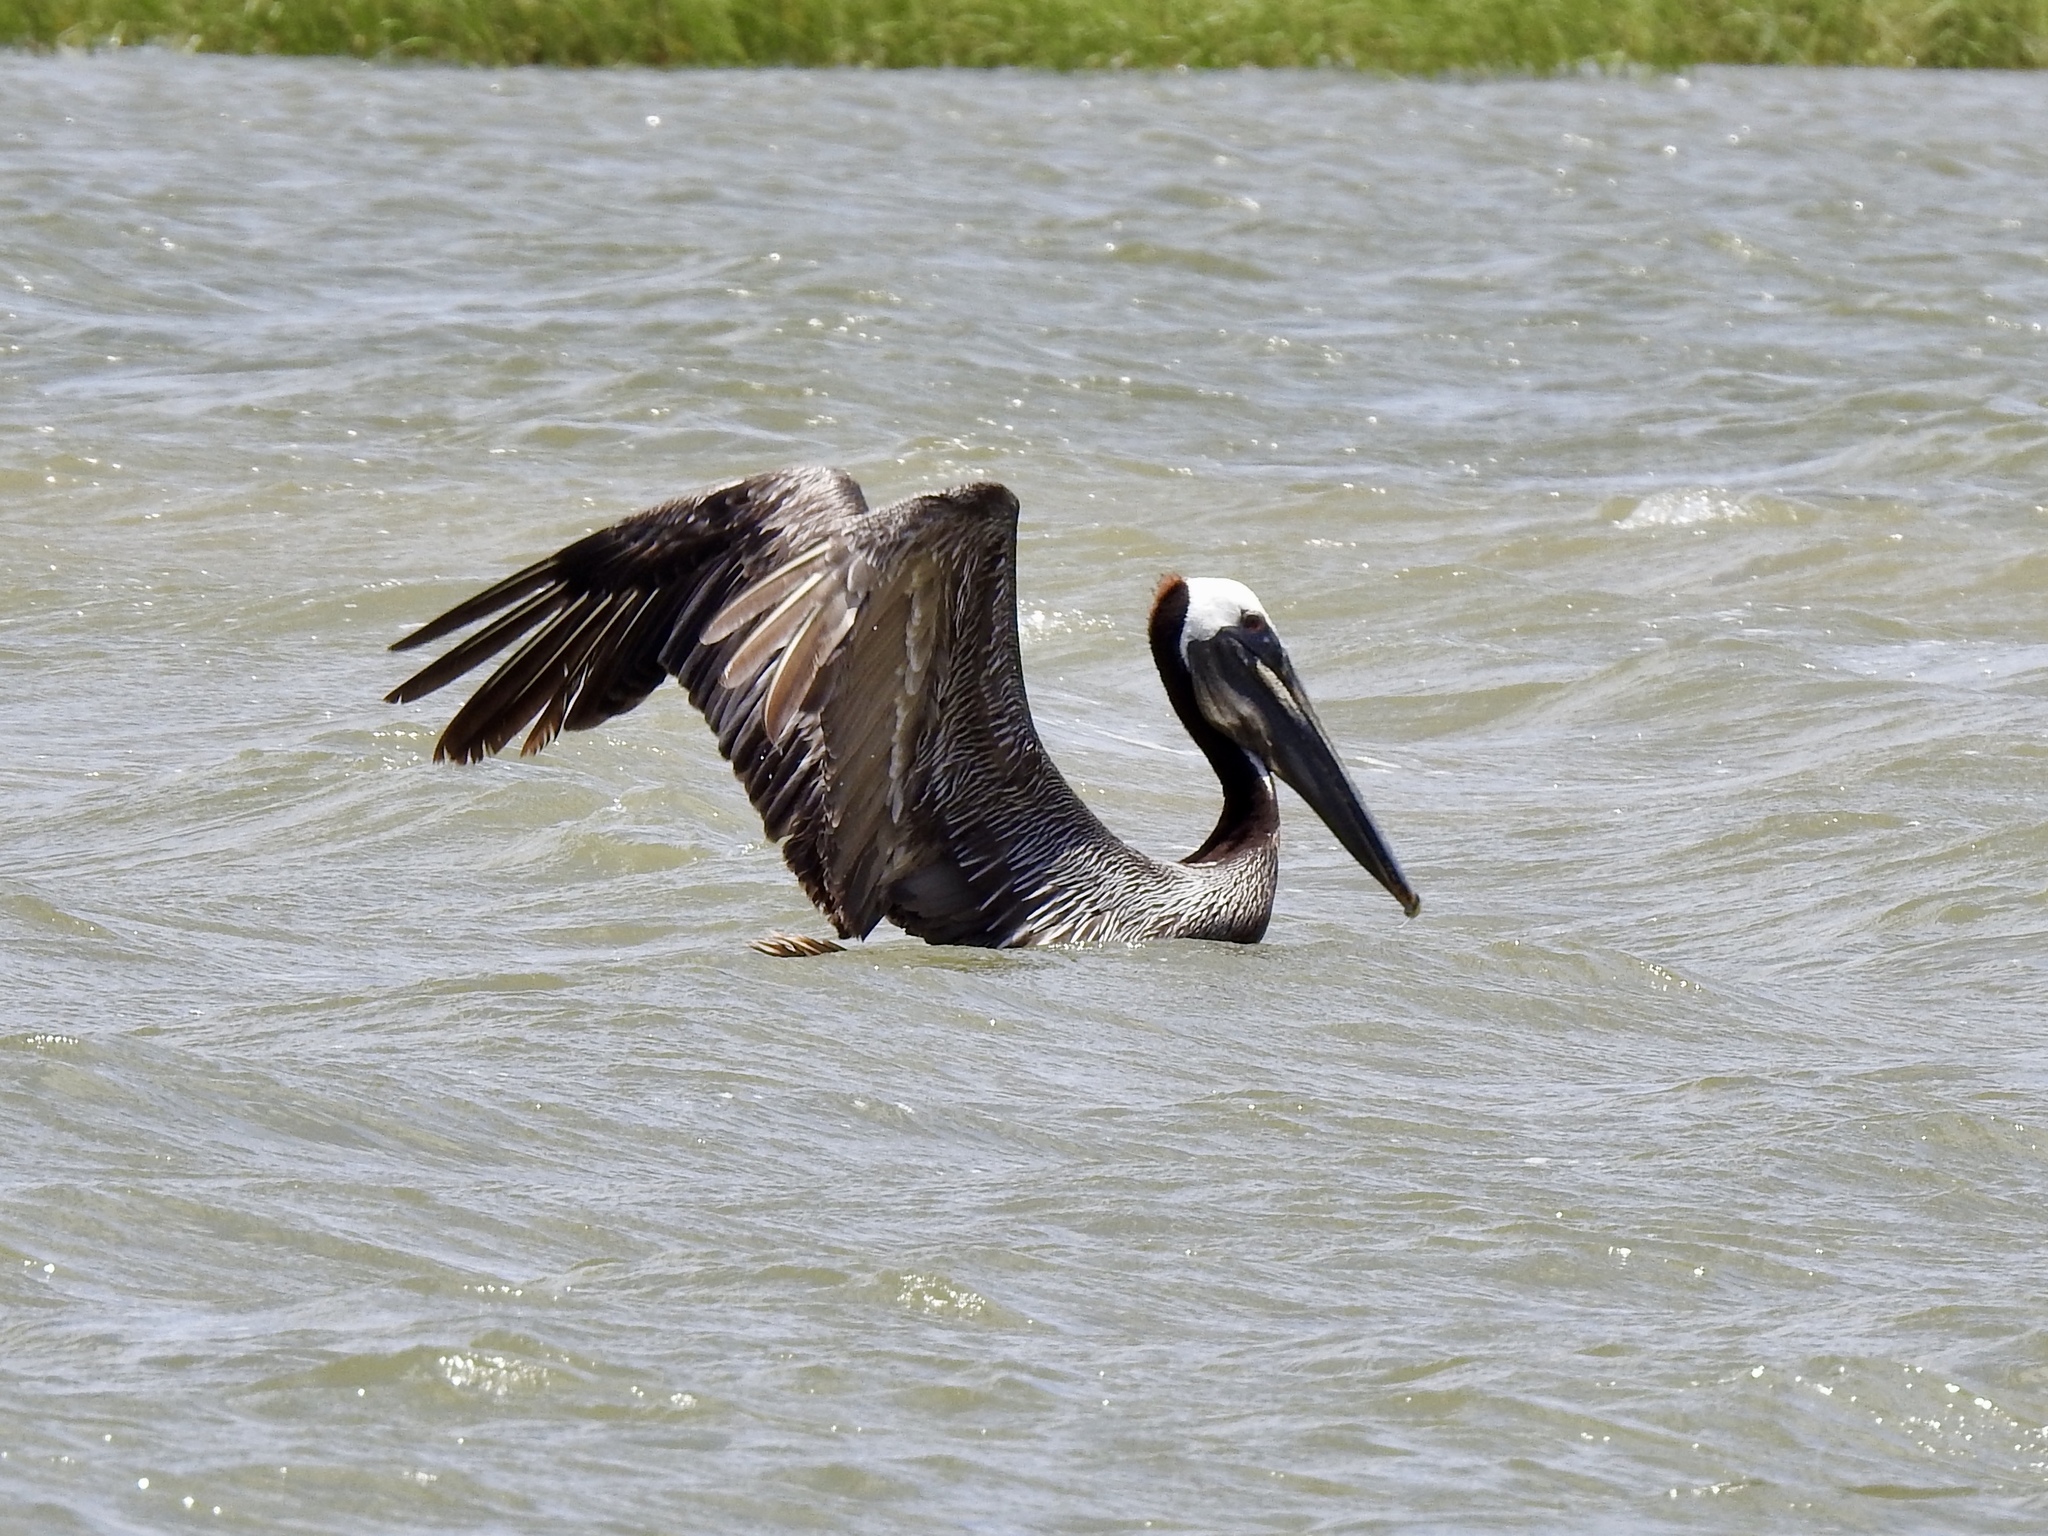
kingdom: Animalia
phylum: Chordata
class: Aves
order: Pelecaniformes
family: Pelecanidae
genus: Pelecanus
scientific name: Pelecanus occidentalis
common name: Brown pelican
